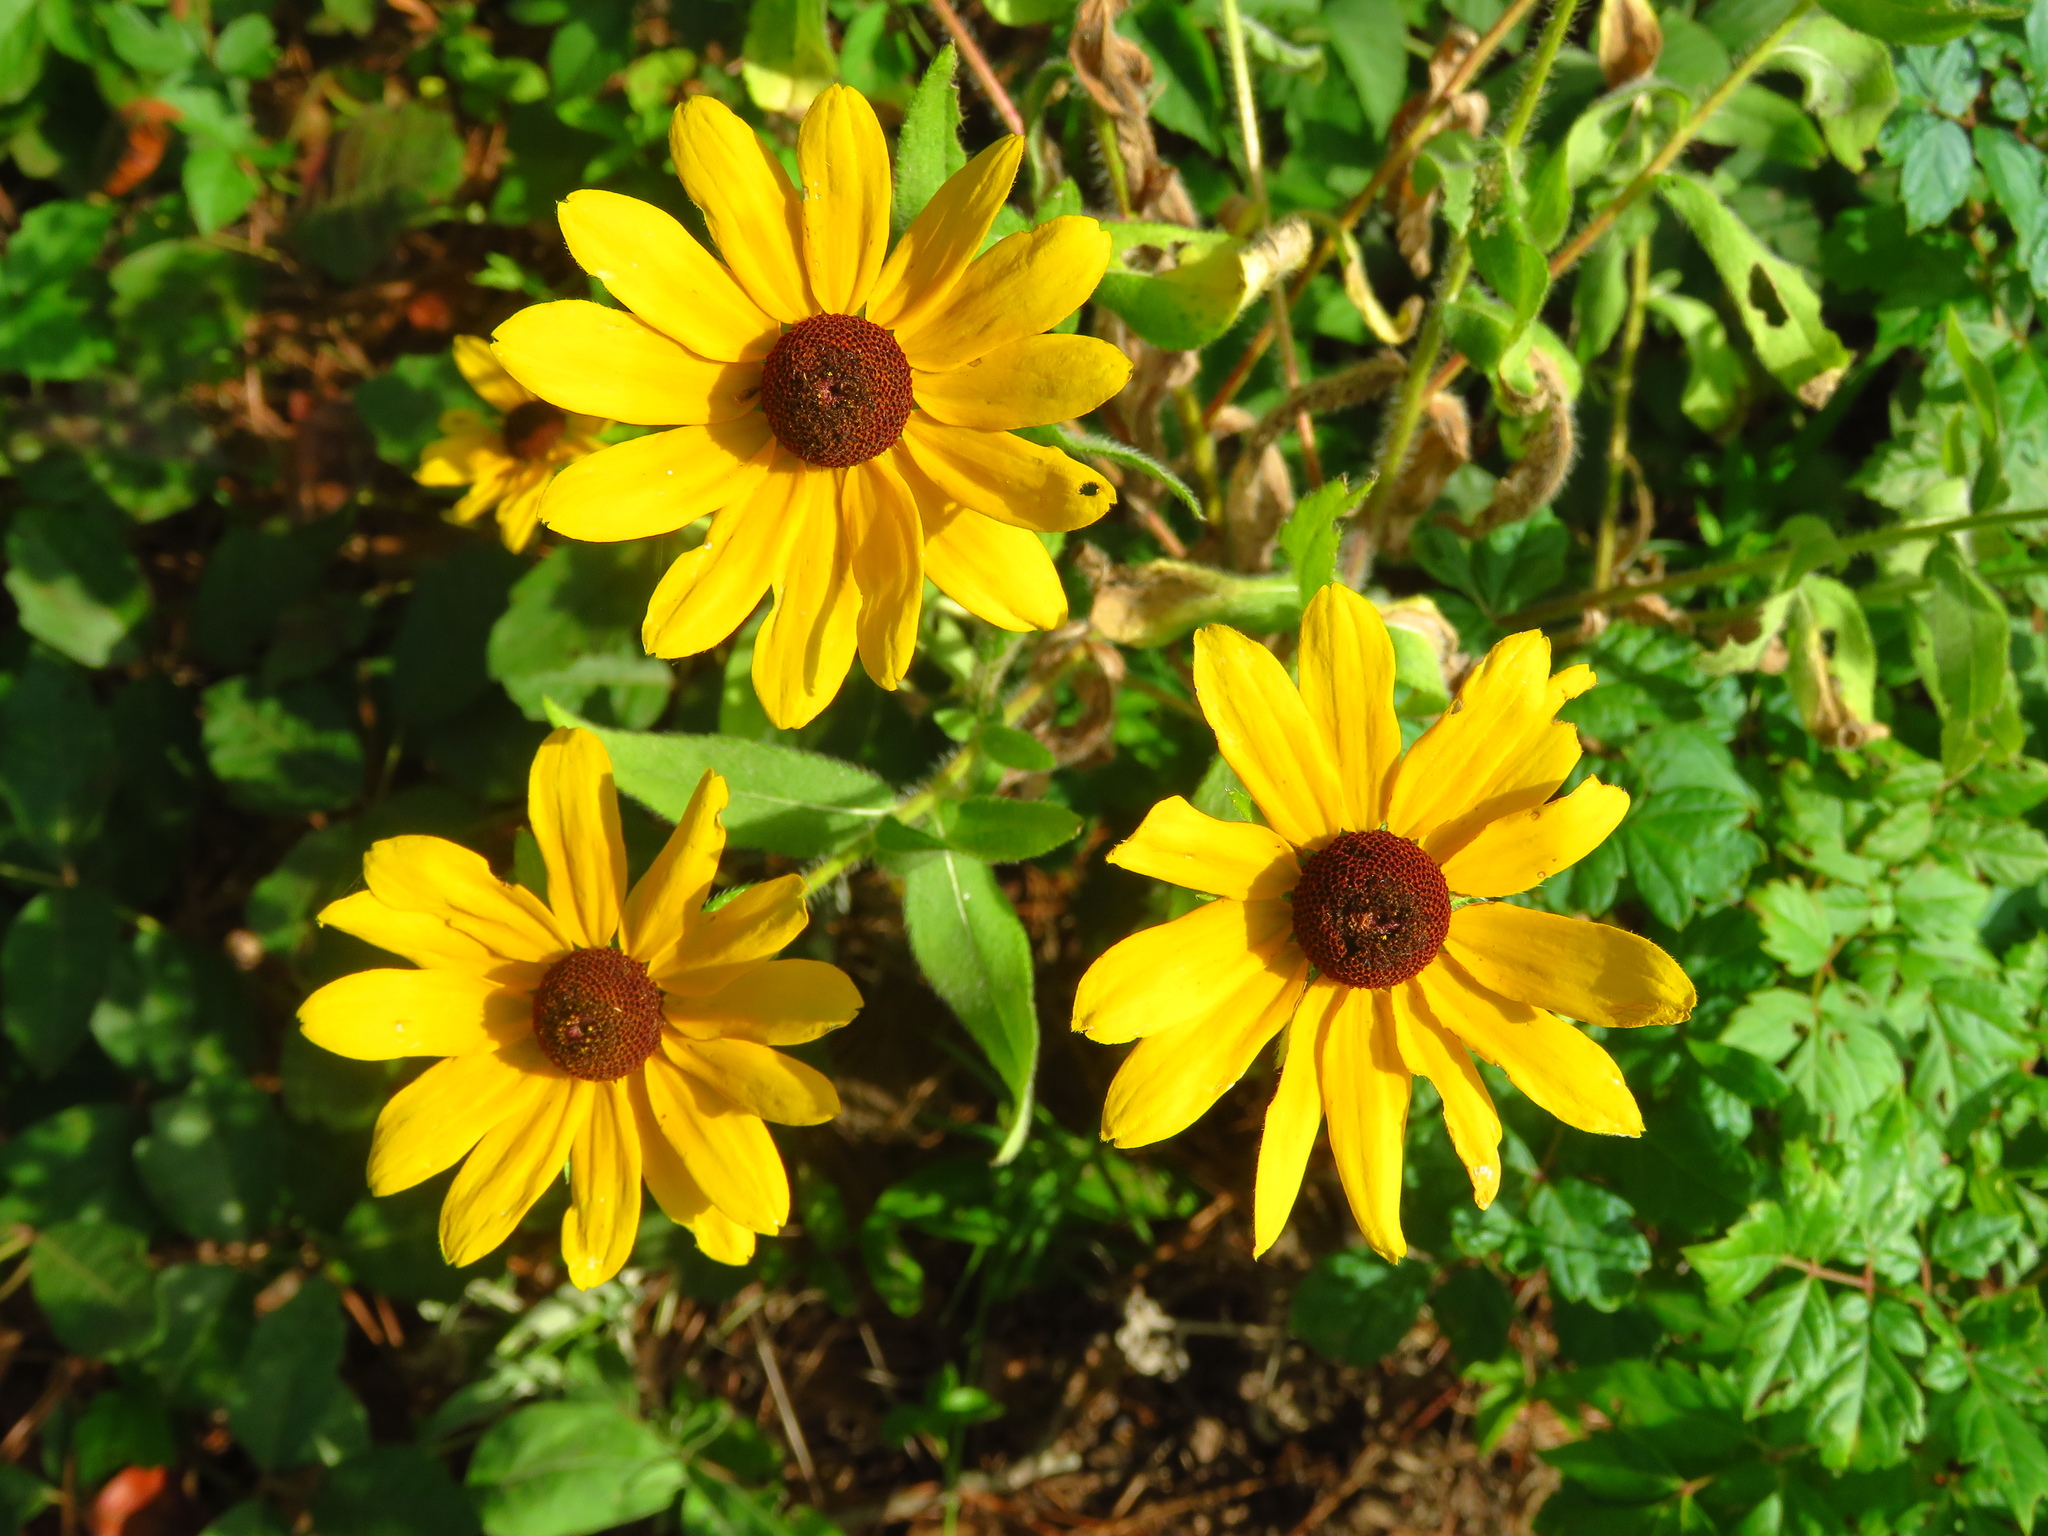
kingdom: Plantae
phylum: Tracheophyta
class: Magnoliopsida
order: Asterales
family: Asteraceae
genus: Rudbeckia
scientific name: Rudbeckia hirta
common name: Black-eyed-susan
